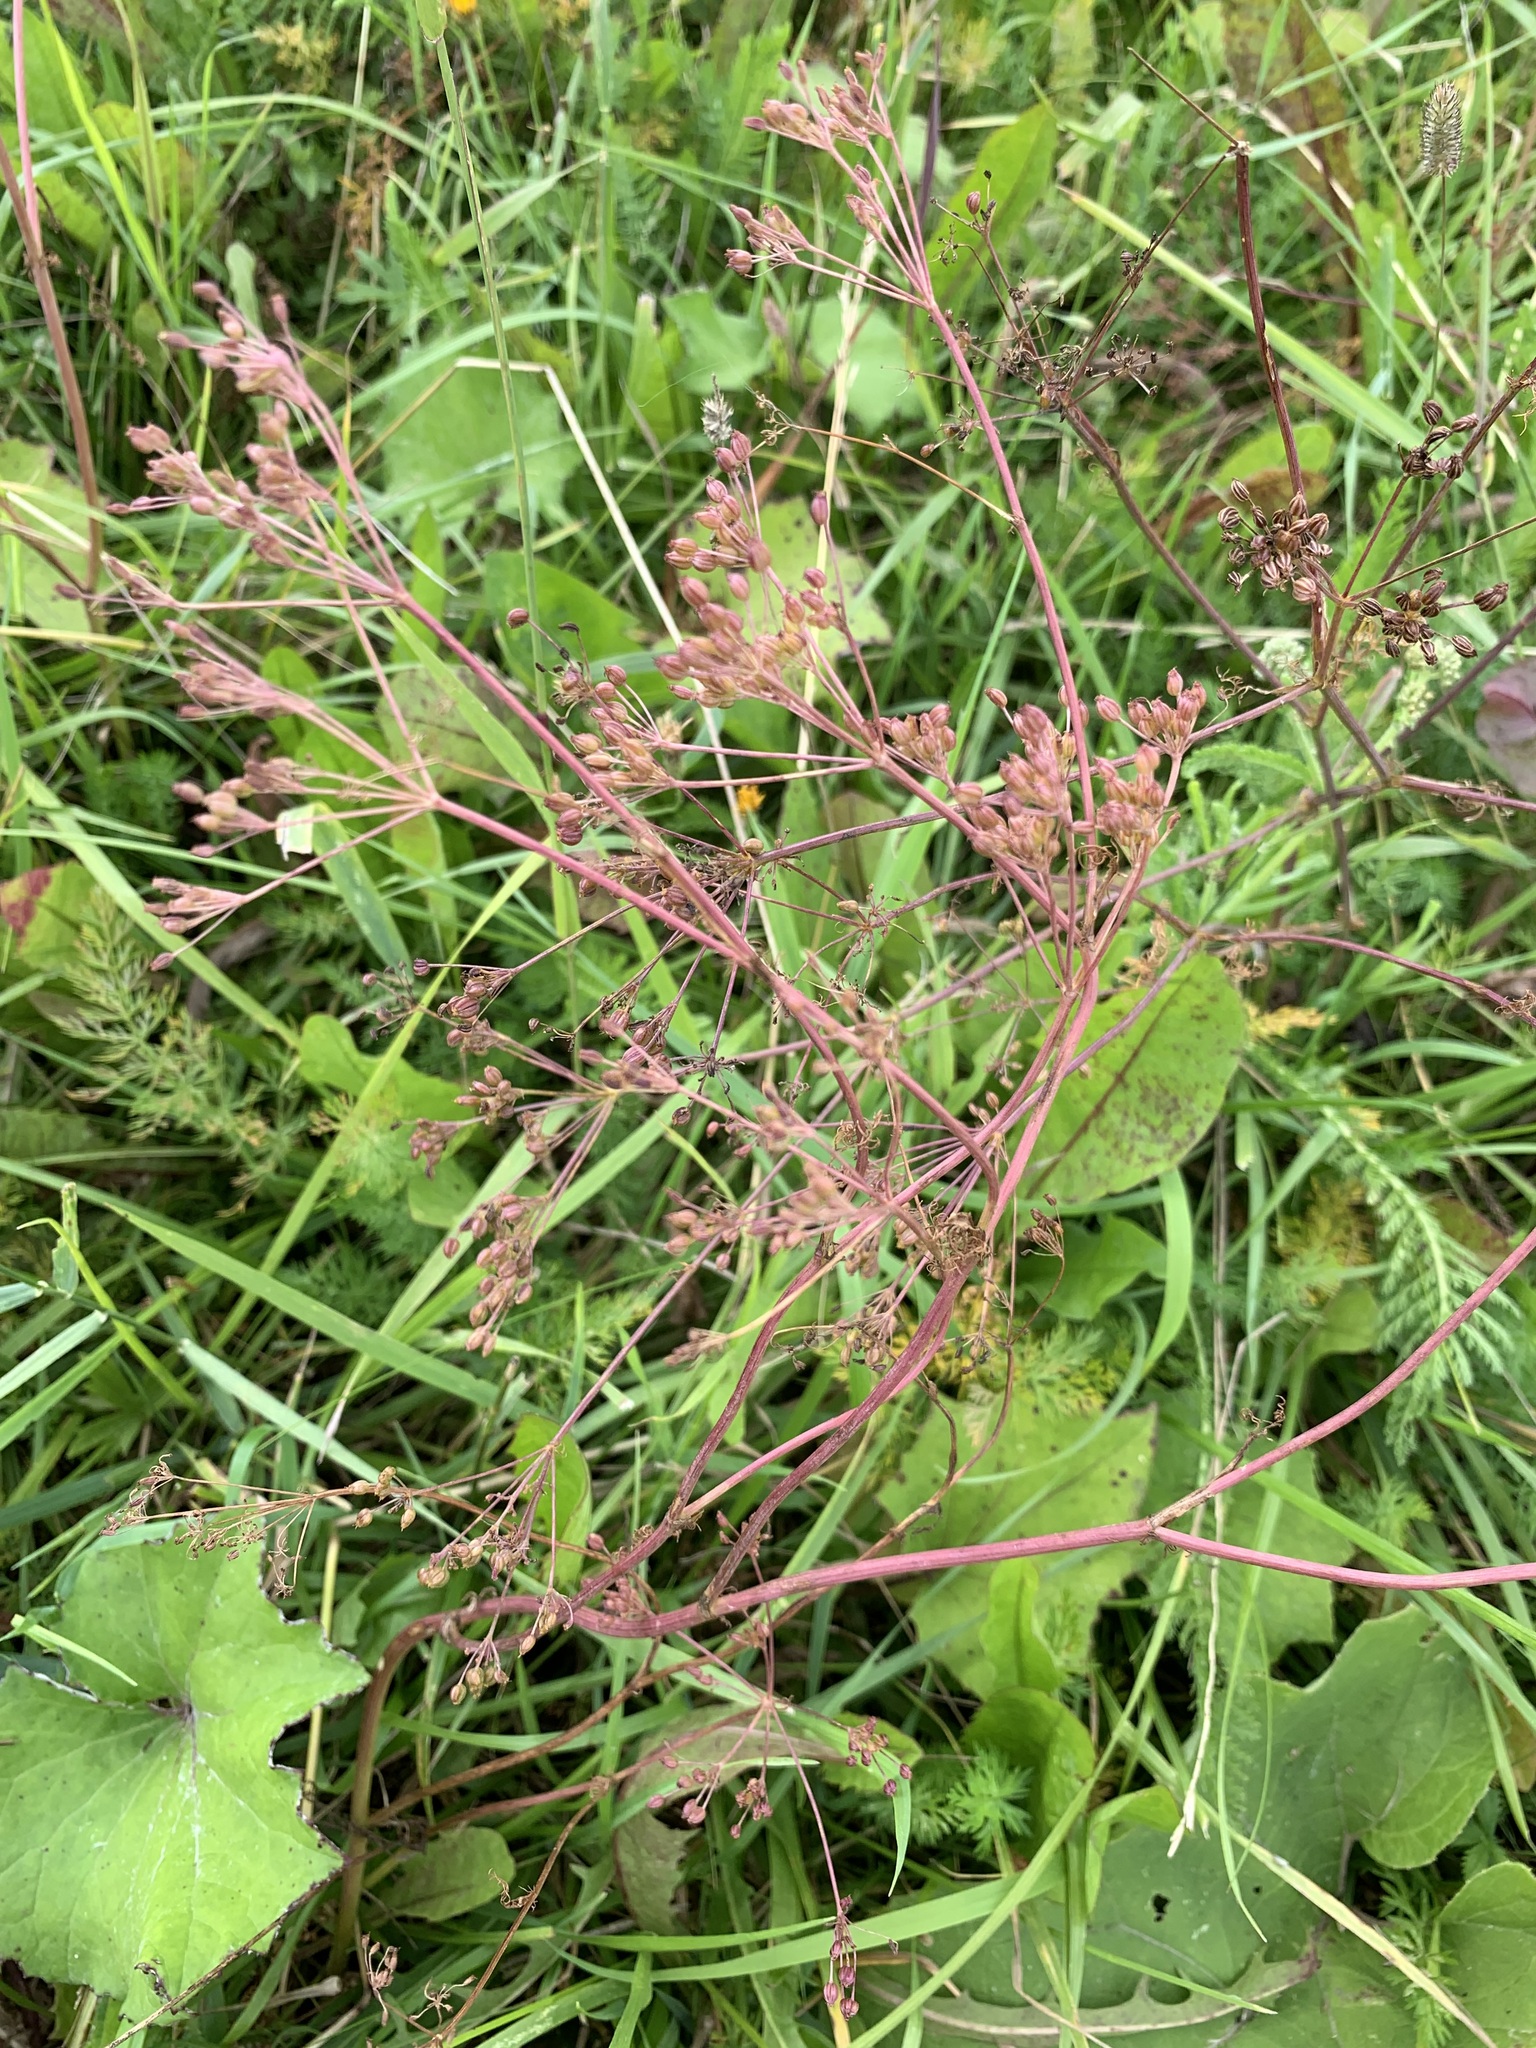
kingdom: Plantae
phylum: Tracheophyta
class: Magnoliopsida
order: Apiales
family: Apiaceae
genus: Carum
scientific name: Carum carvi
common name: Caraway
